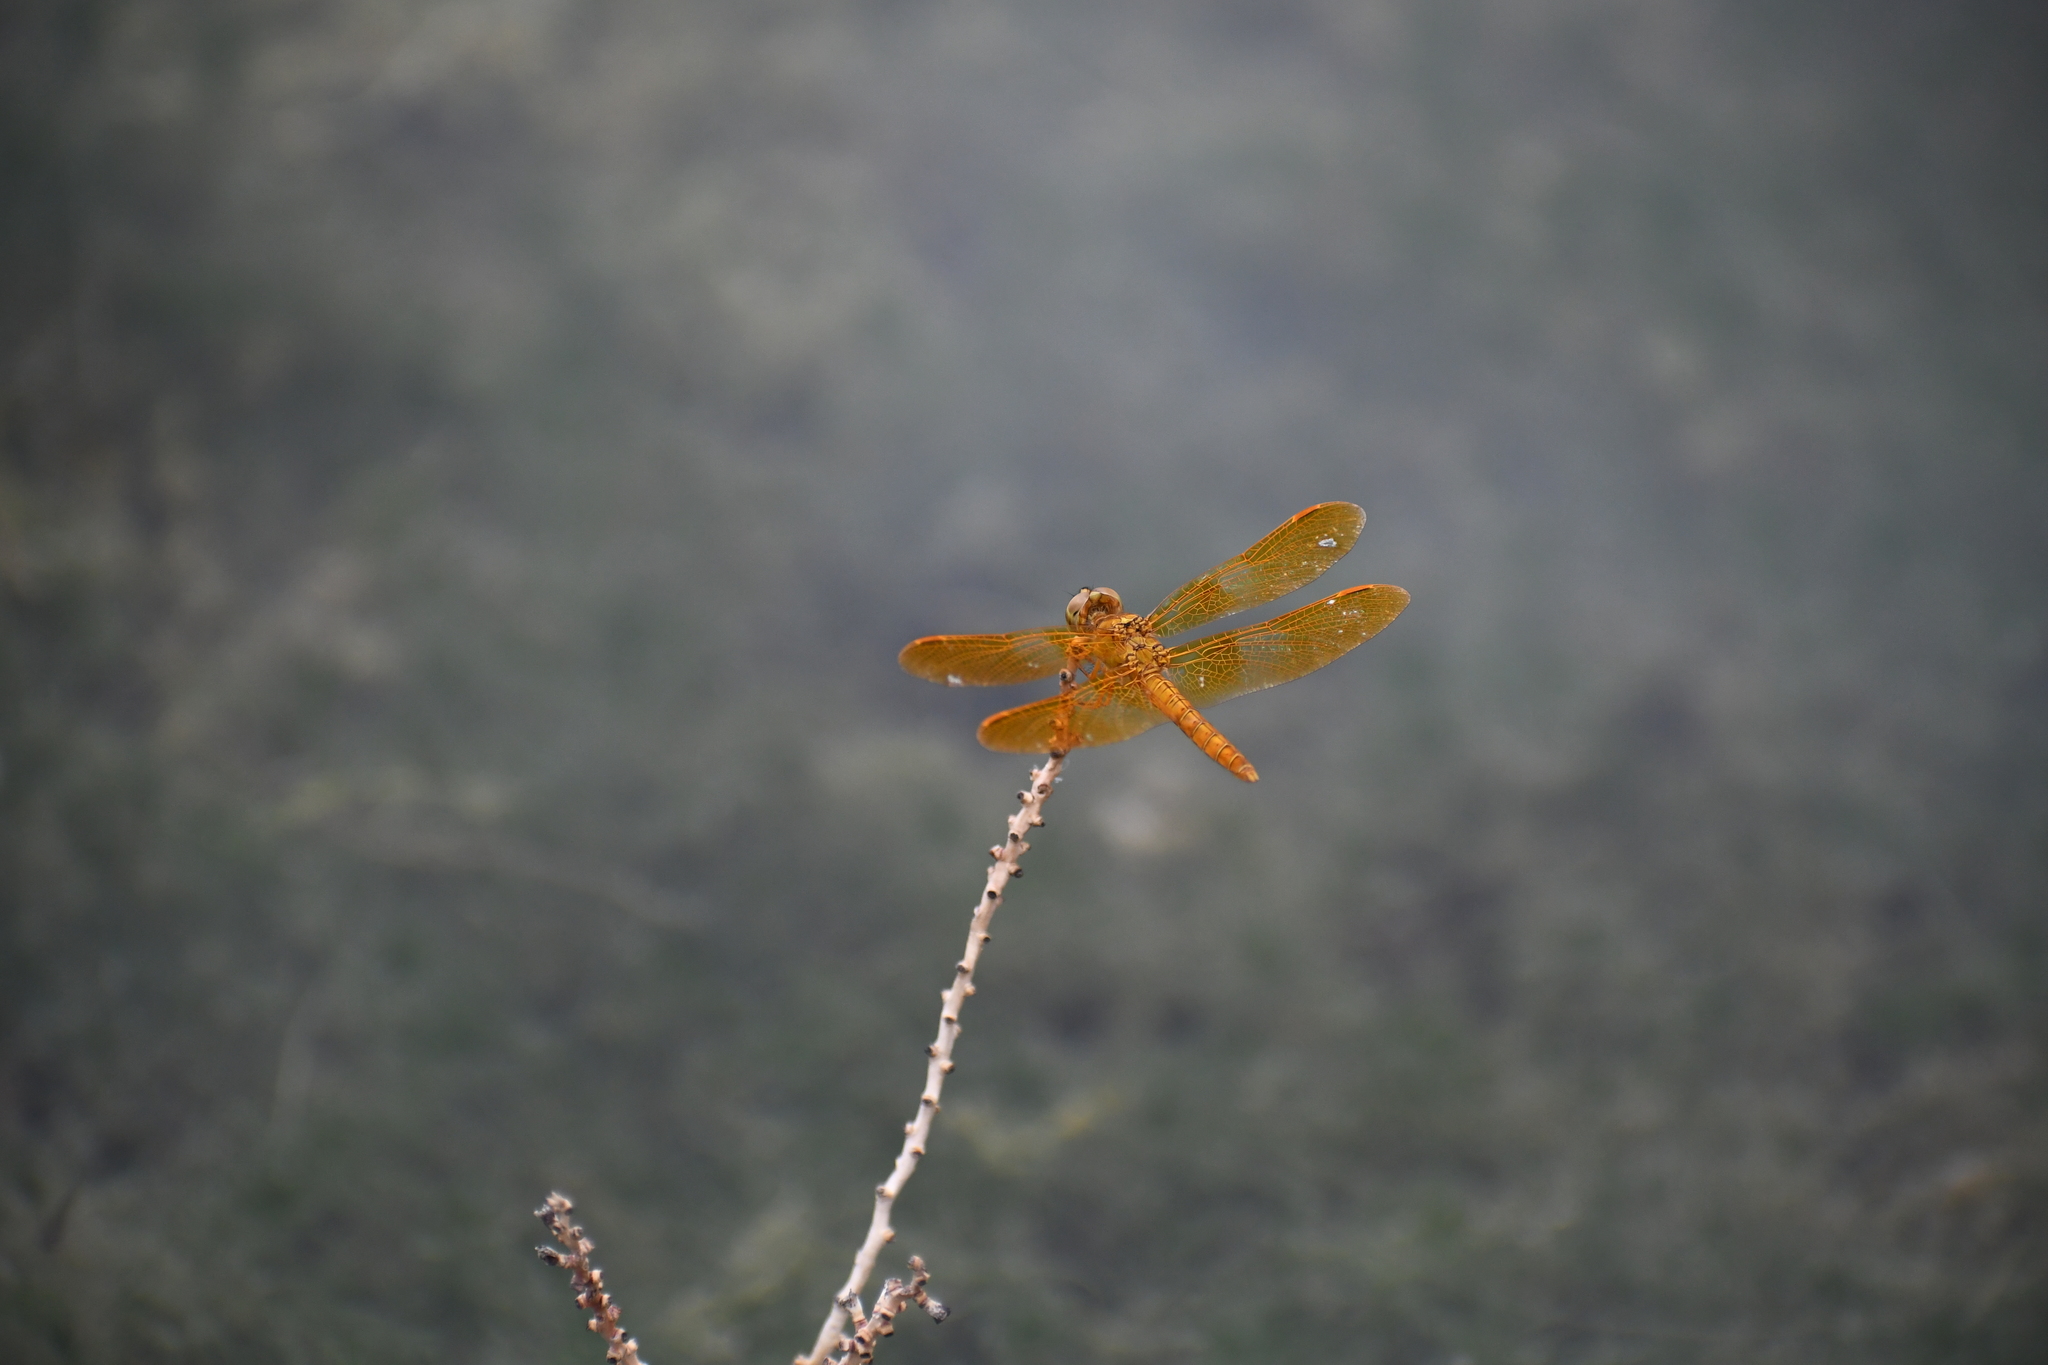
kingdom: Animalia
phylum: Arthropoda
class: Insecta
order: Odonata
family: Libellulidae
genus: Perithemis
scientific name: Perithemis intensa
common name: Mexican amberwing
